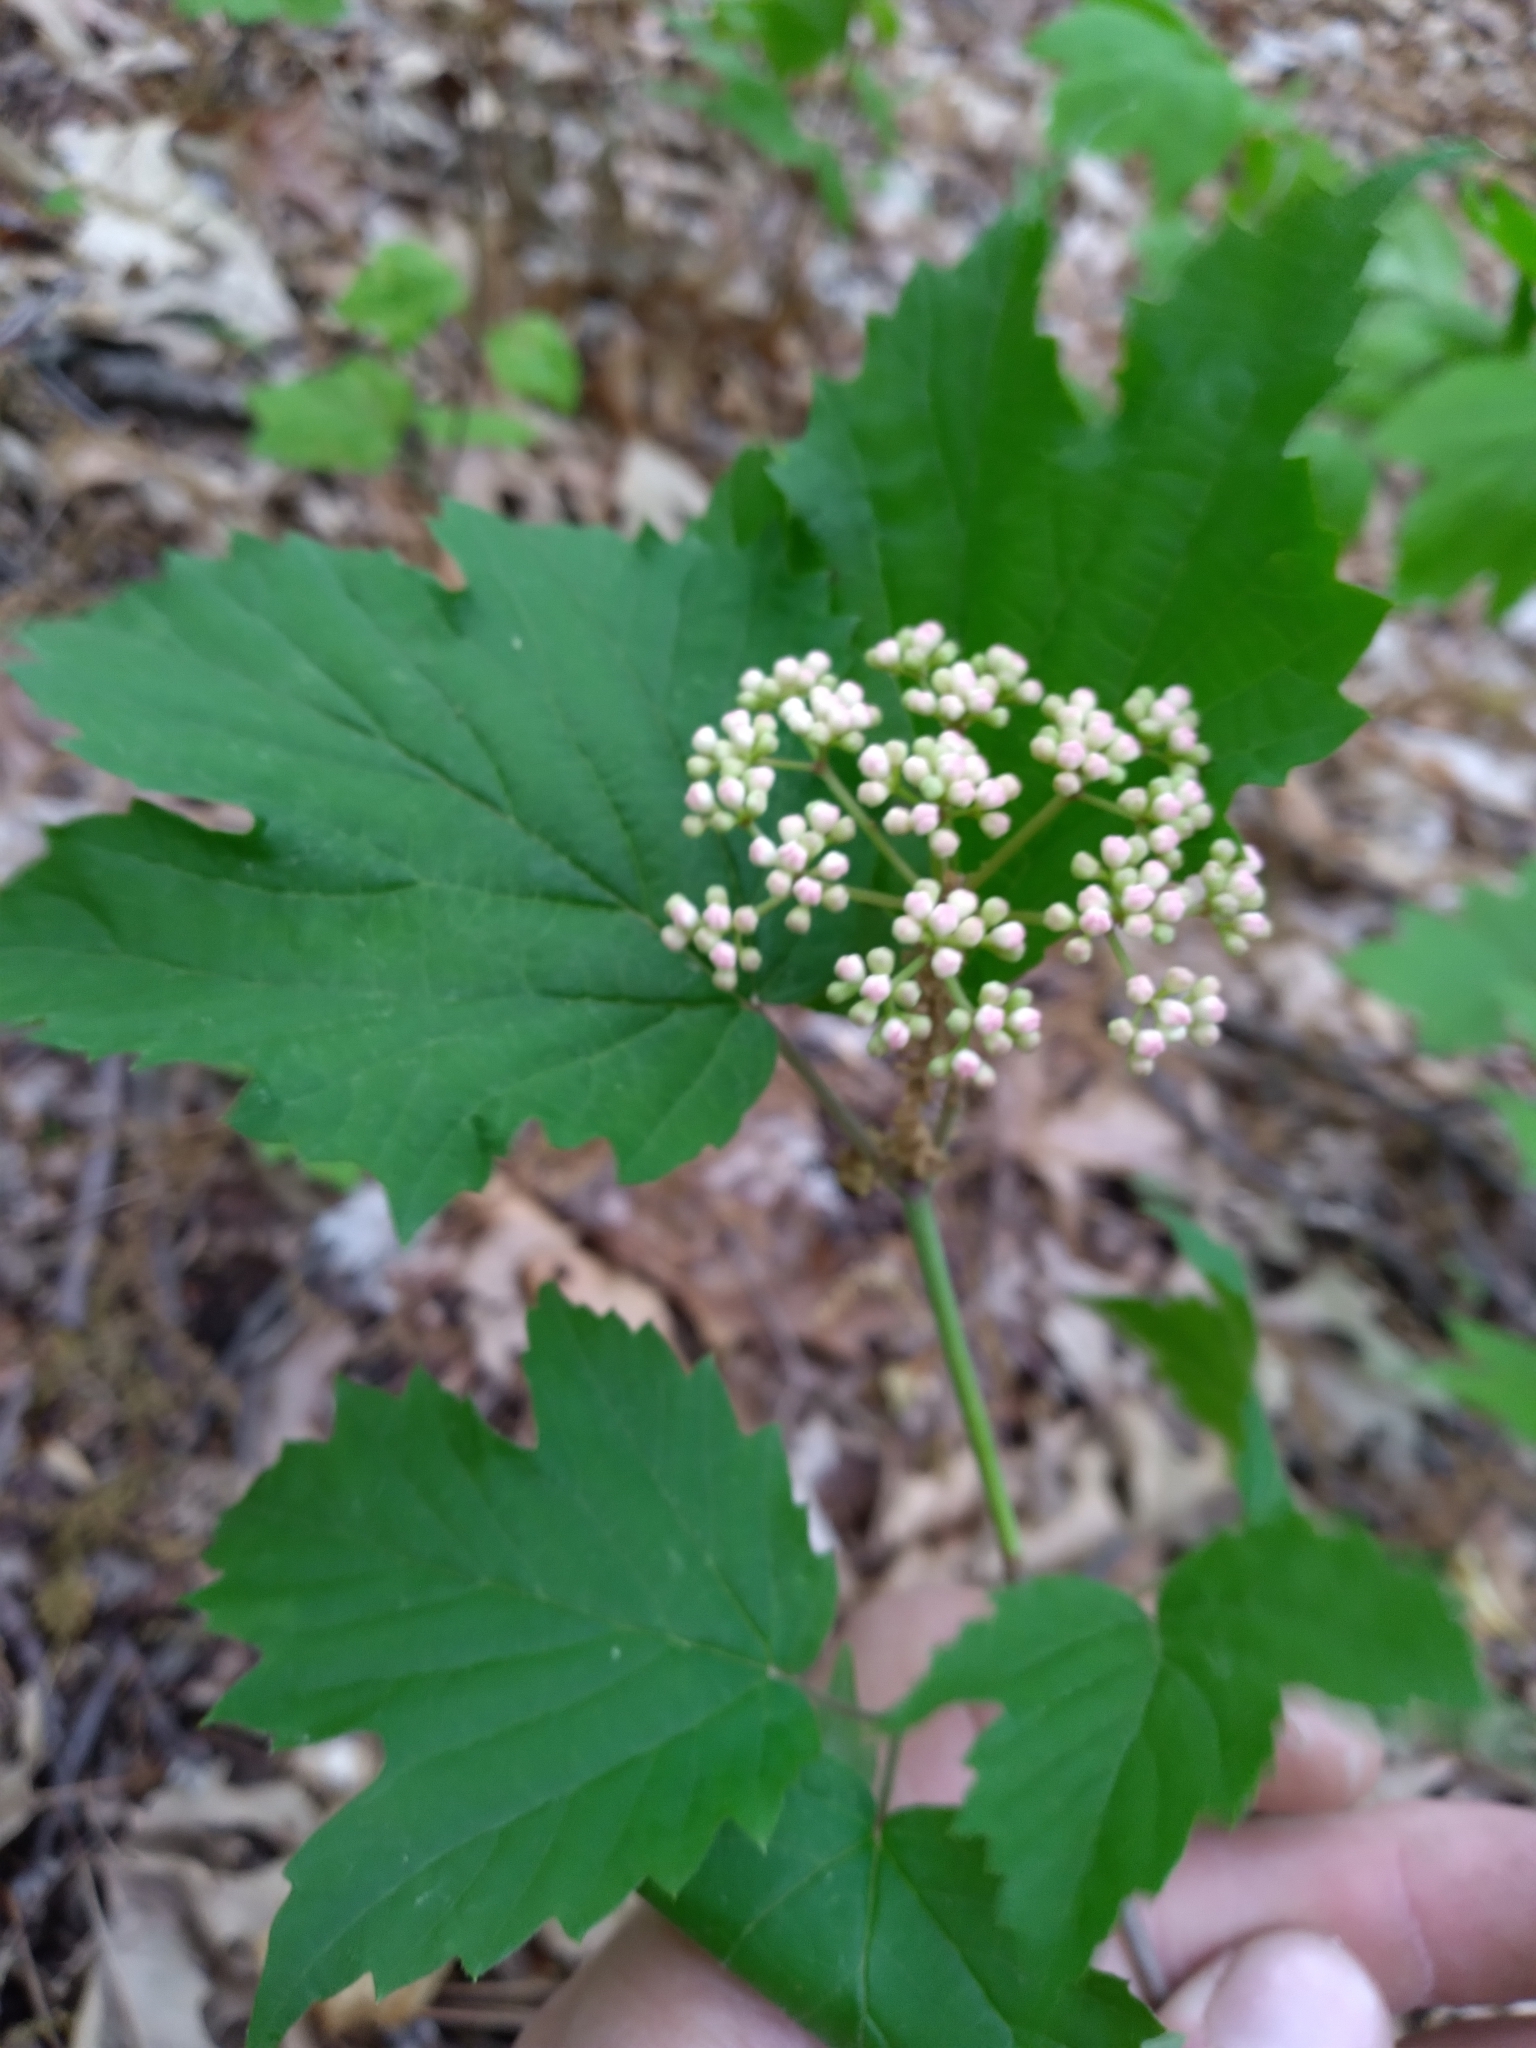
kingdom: Plantae
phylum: Tracheophyta
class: Magnoliopsida
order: Dipsacales
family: Viburnaceae
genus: Viburnum
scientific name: Viburnum acerifolium
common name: Dockmackie
